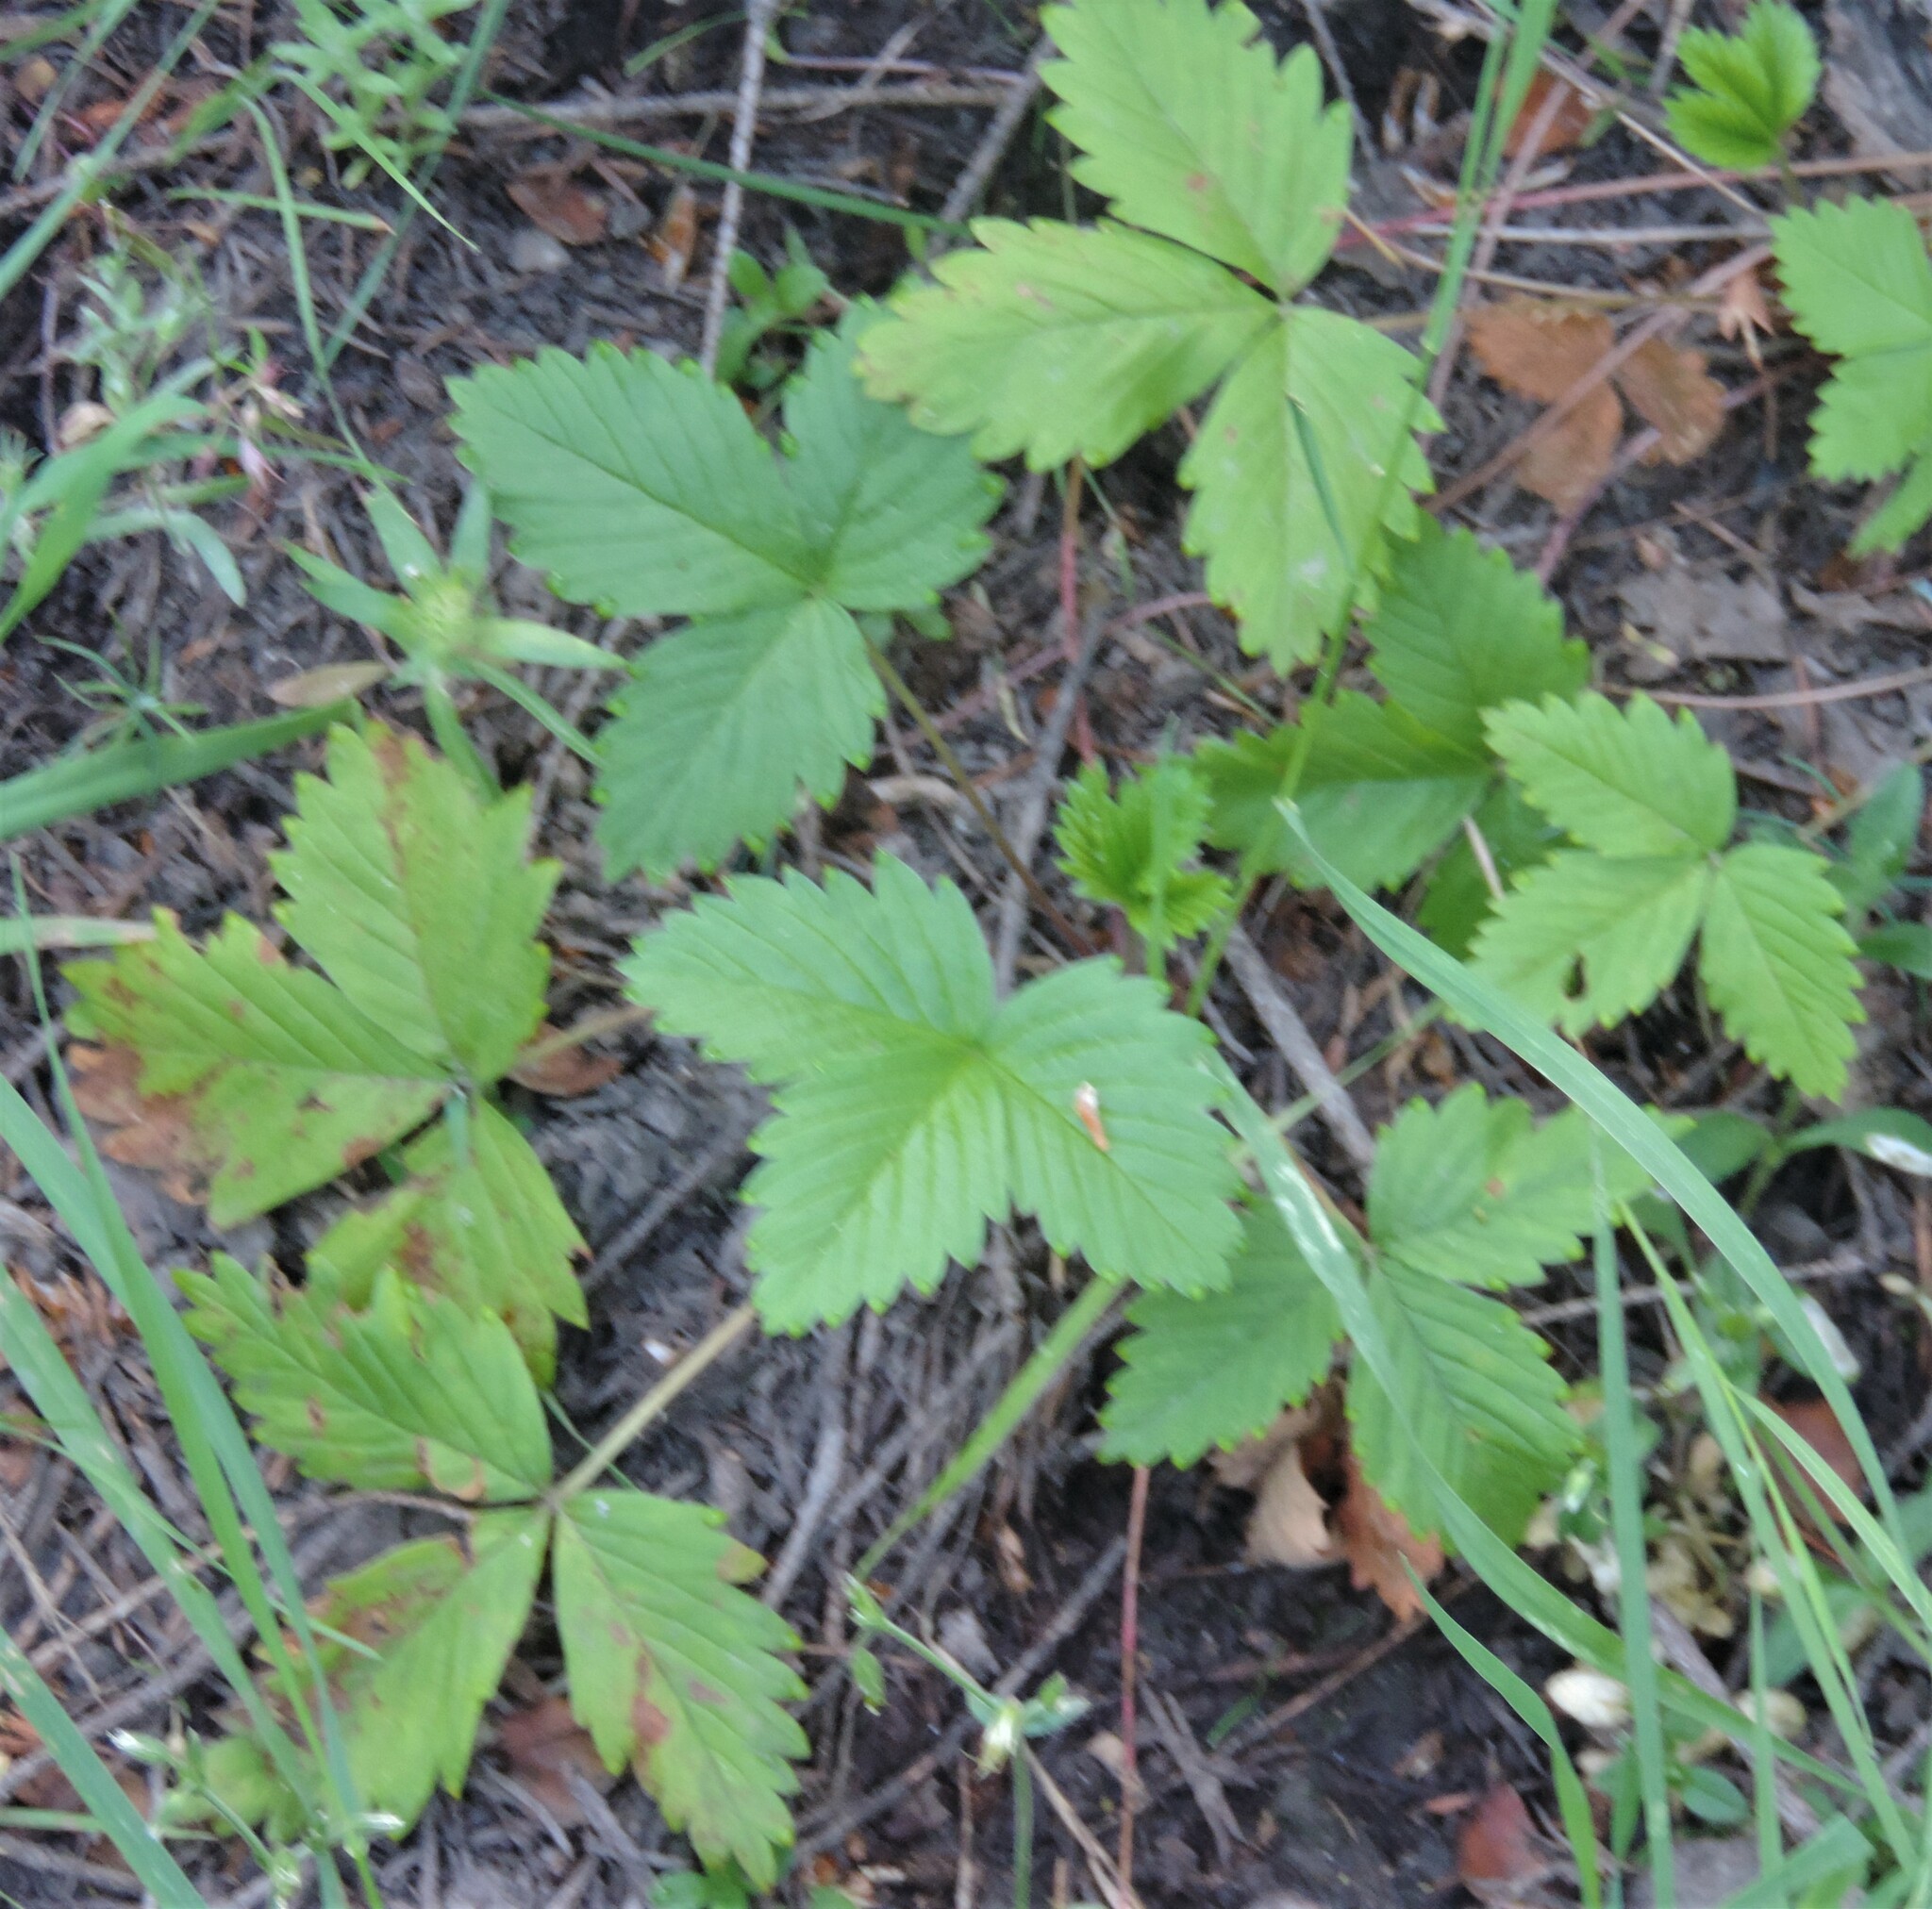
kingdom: Plantae
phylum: Tracheophyta
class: Magnoliopsida
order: Rosales
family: Rosaceae
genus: Fragaria
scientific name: Fragaria vesca
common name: Wild strawberry
